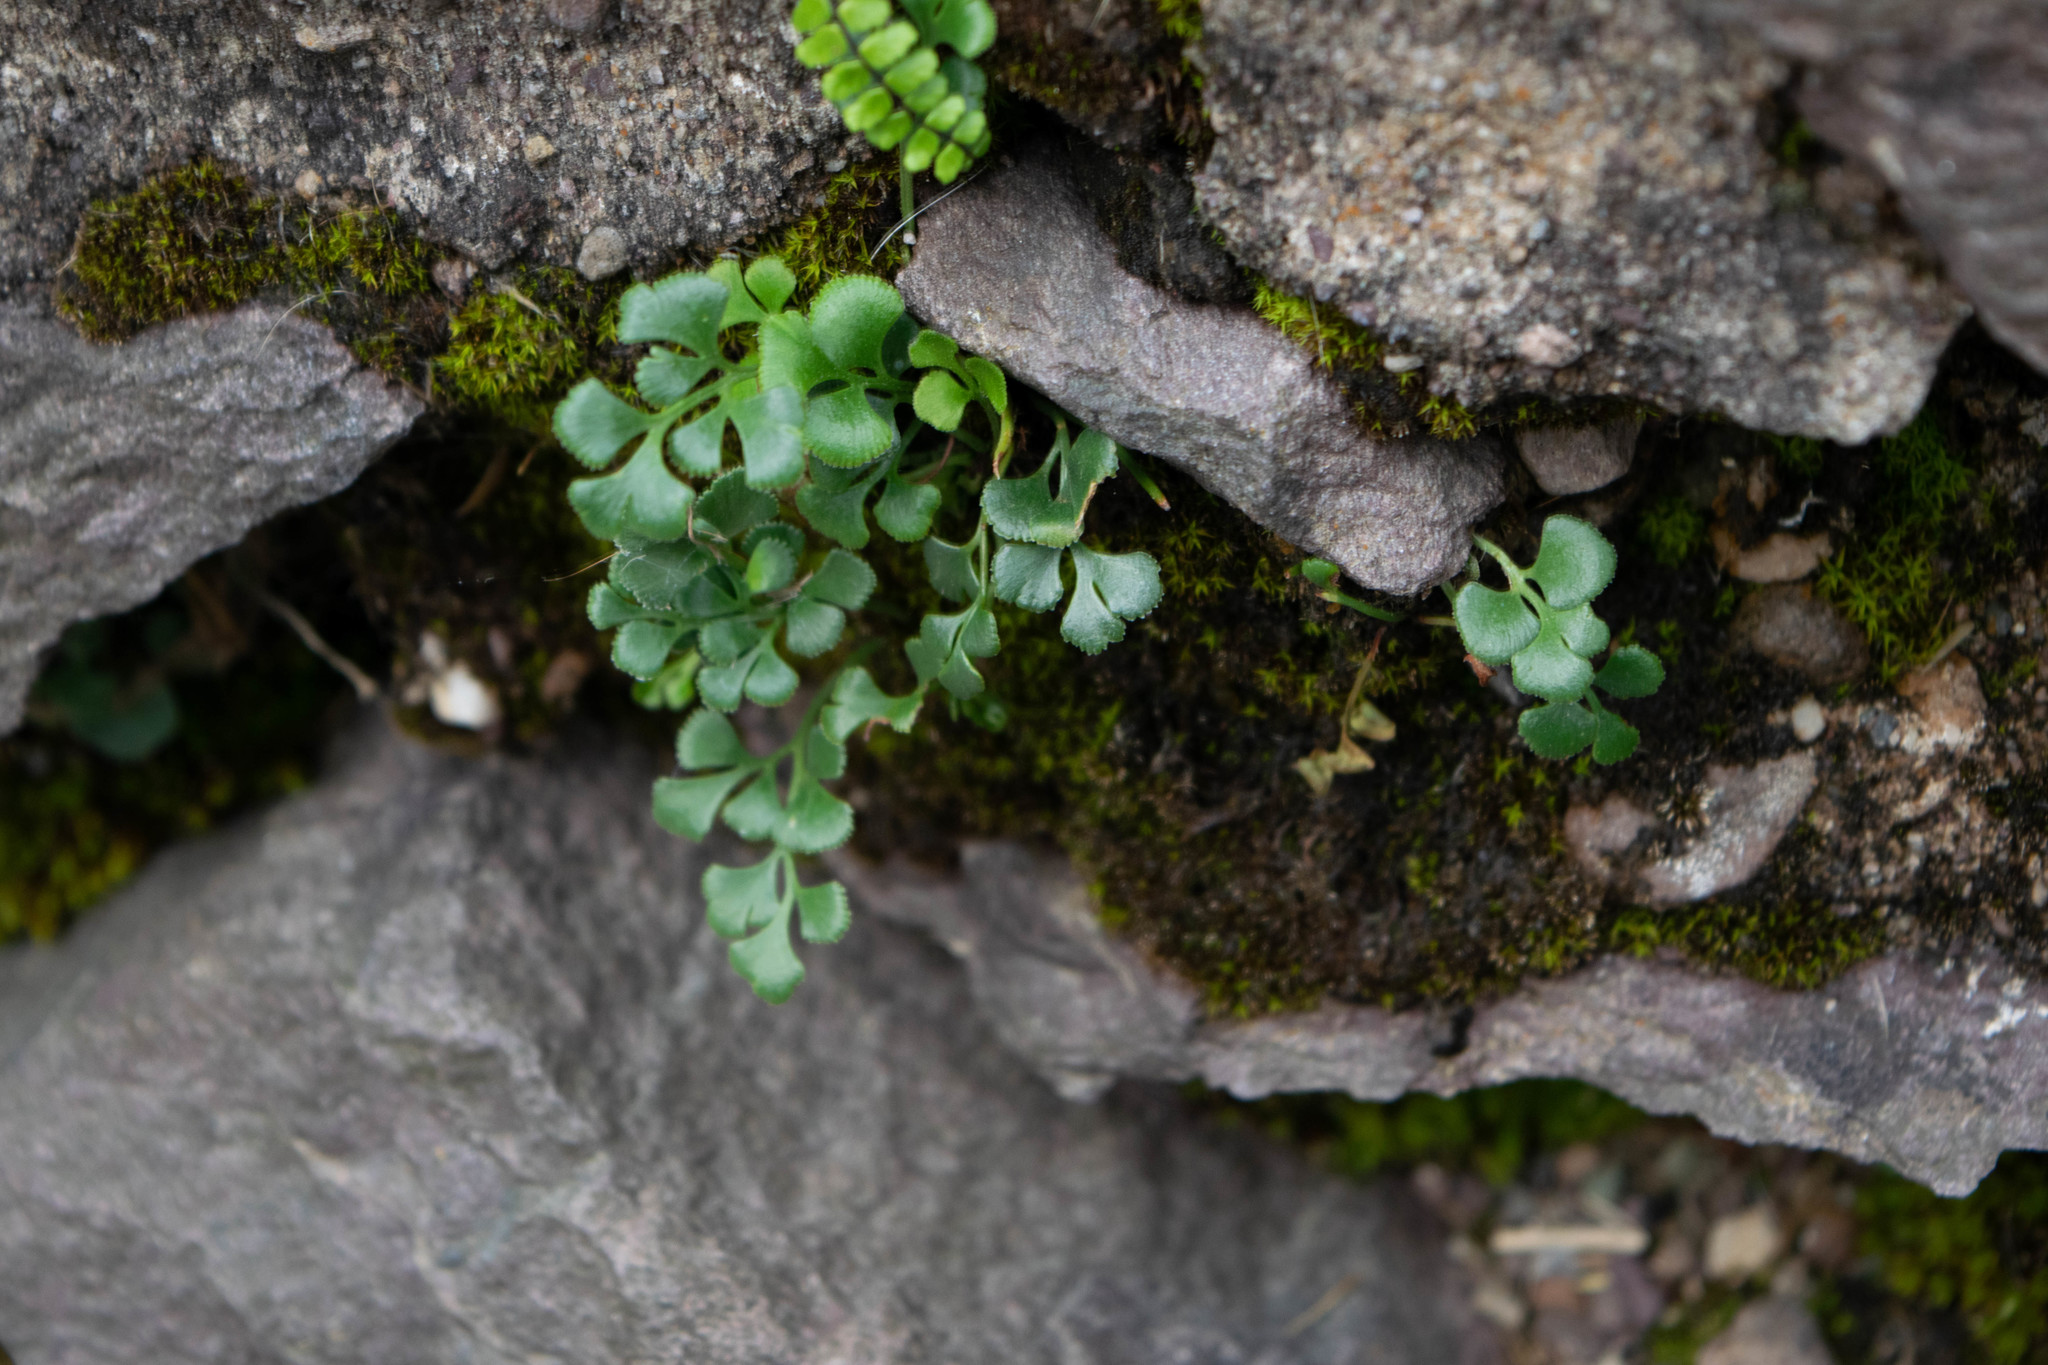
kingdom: Plantae
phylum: Tracheophyta
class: Polypodiopsida
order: Polypodiales
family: Aspleniaceae
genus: Asplenium
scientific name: Asplenium ruta-muraria
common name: Wall-rue
